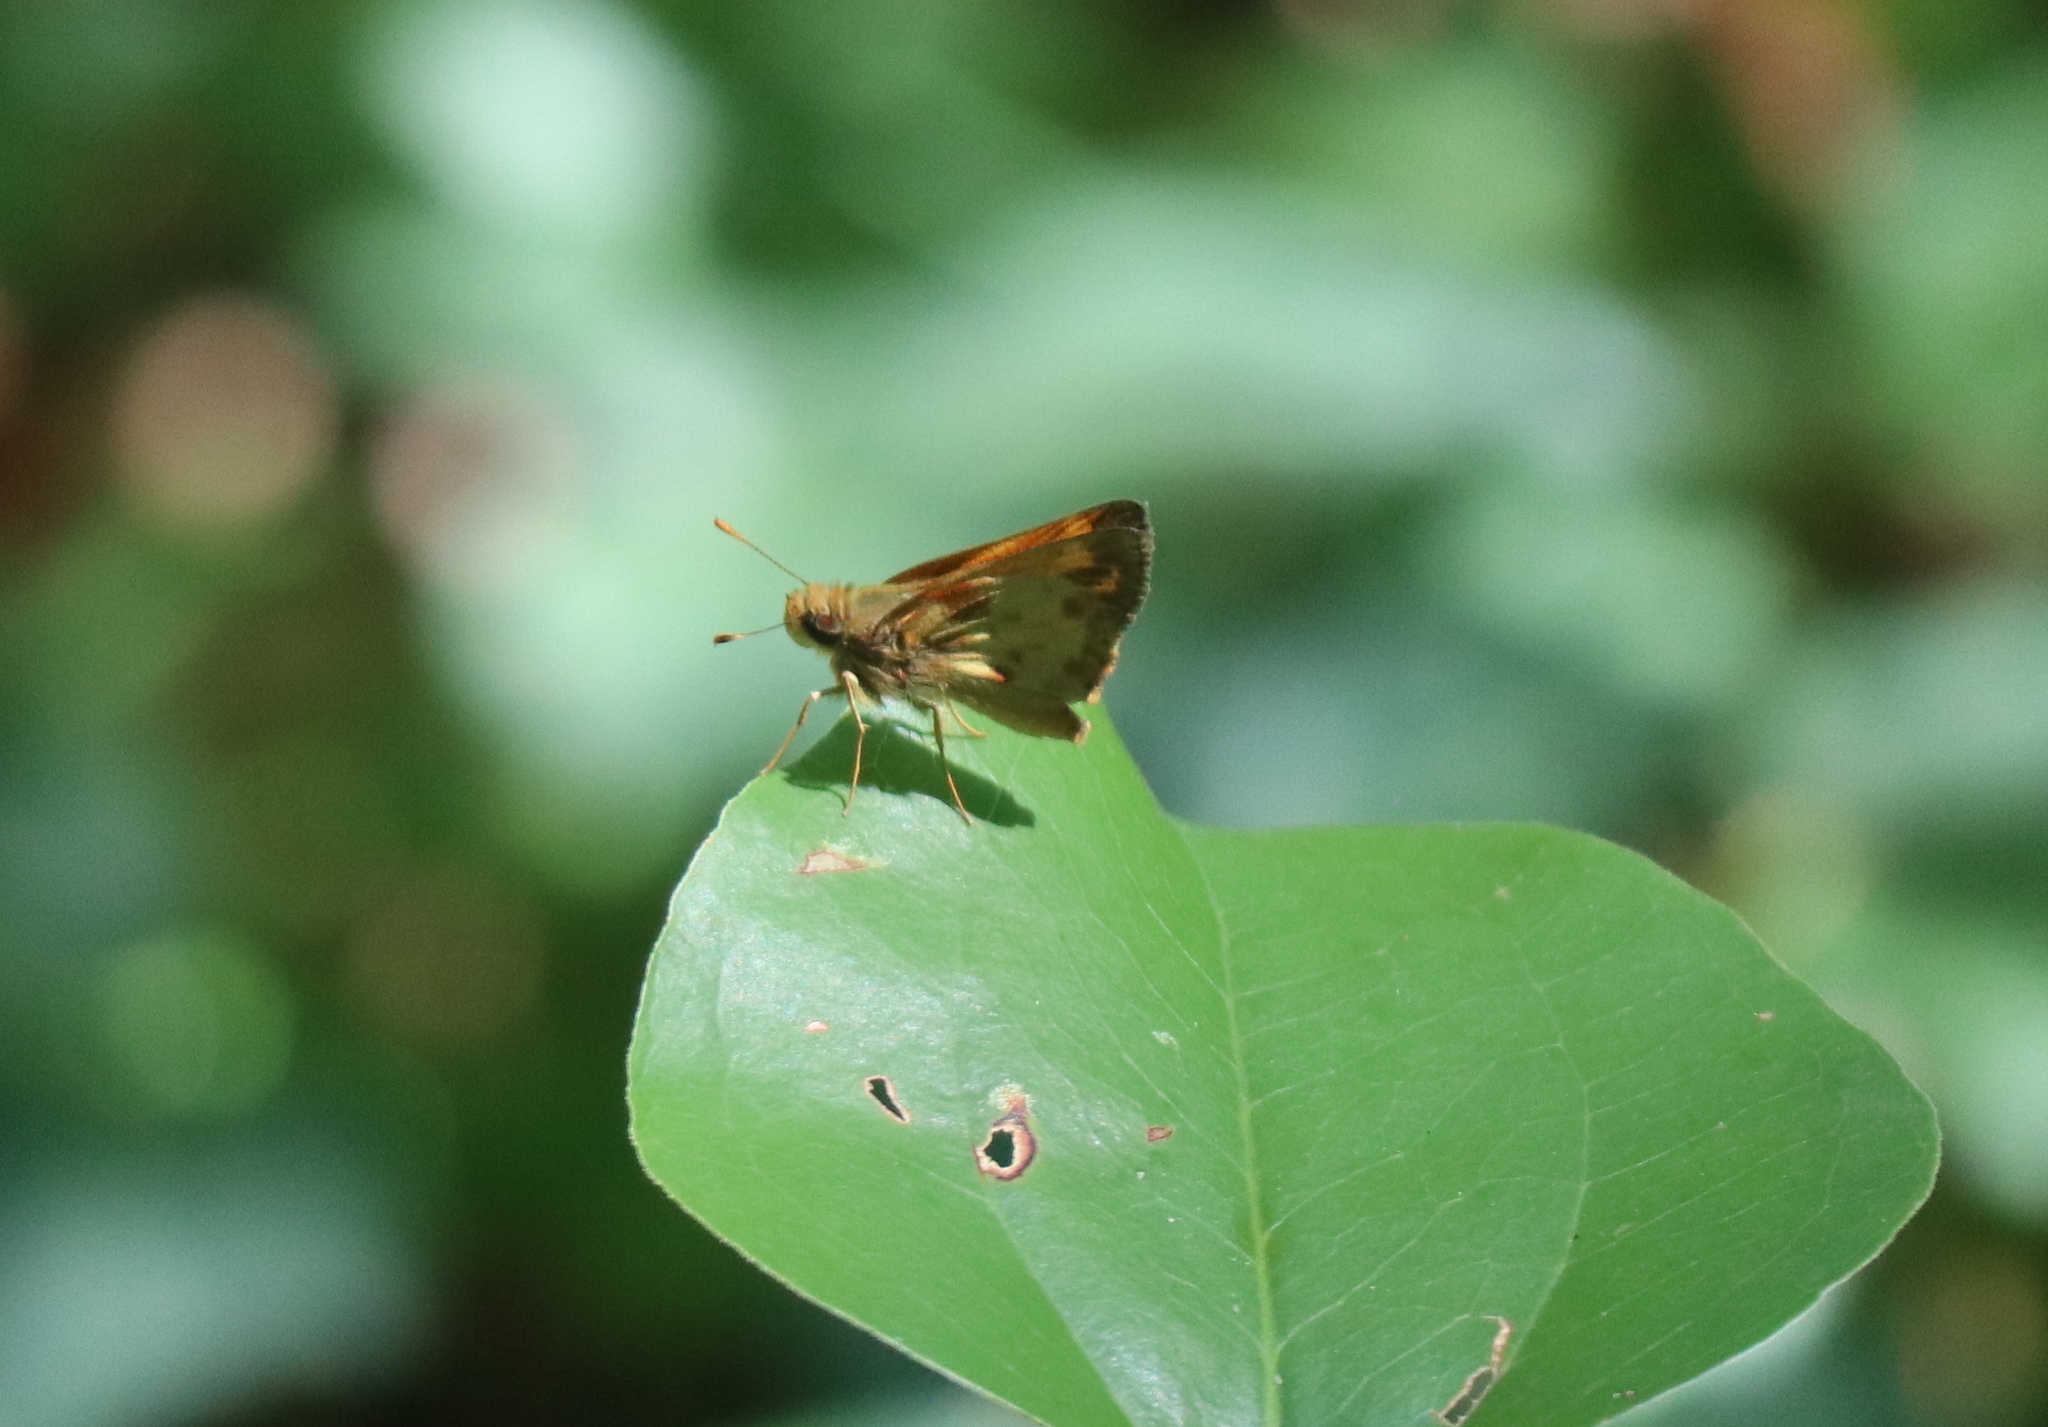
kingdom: Animalia
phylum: Arthropoda
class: Insecta
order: Lepidoptera
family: Hesperiidae
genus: Lon
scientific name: Lon zabulon
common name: Zabulon skipper
